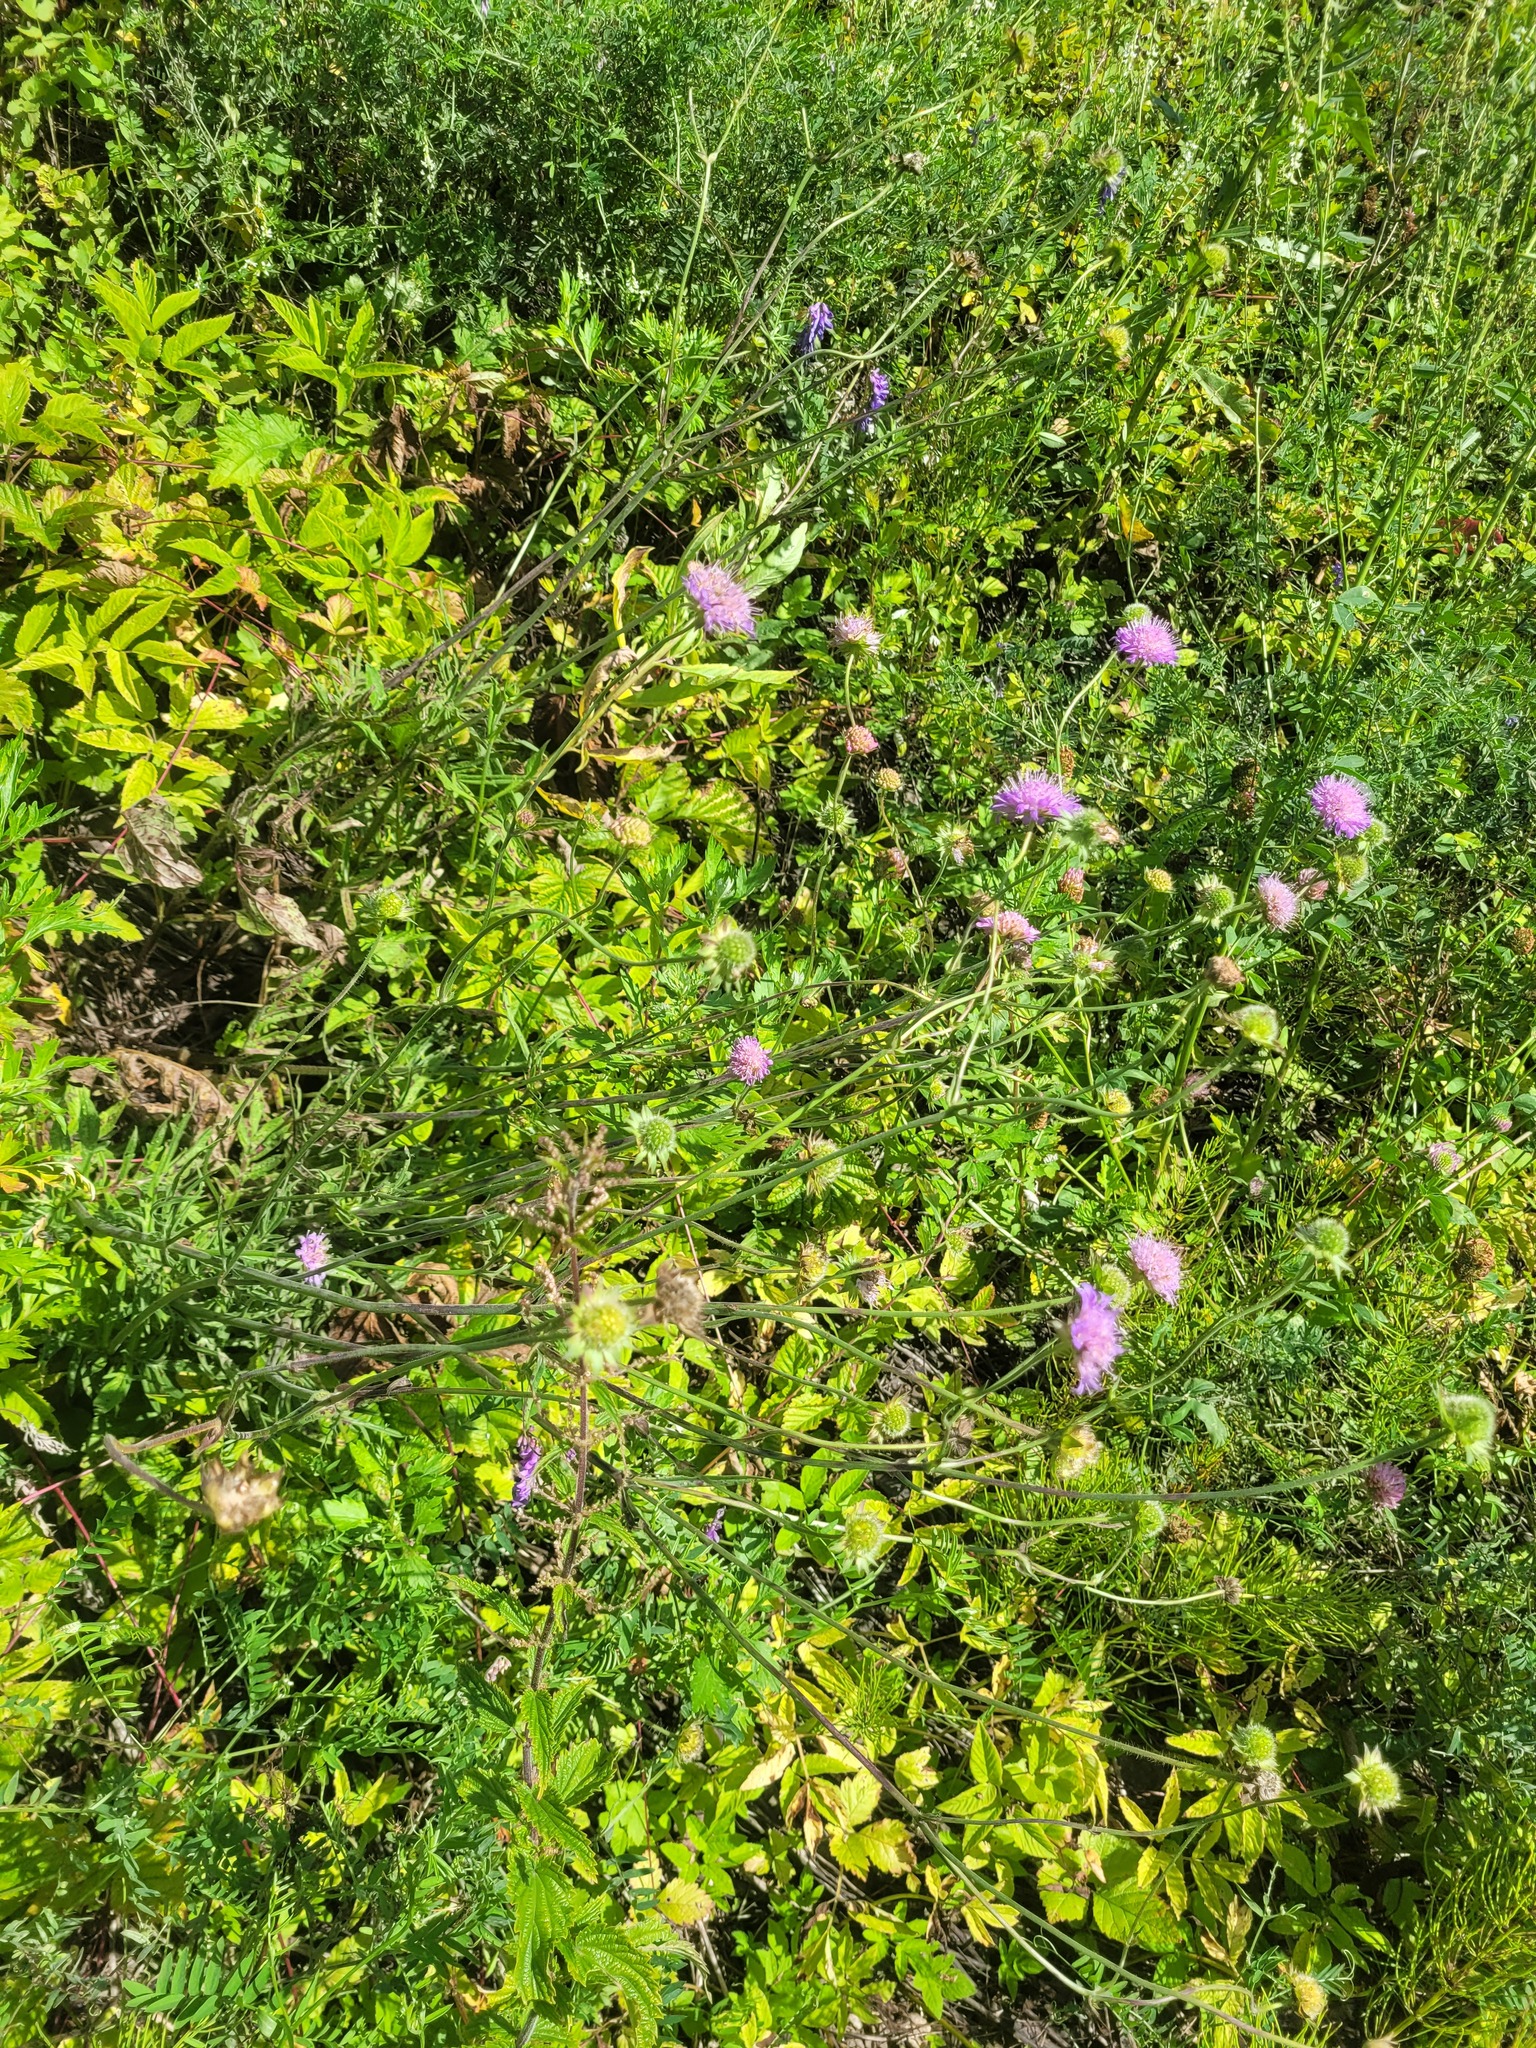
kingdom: Plantae
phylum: Tracheophyta
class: Magnoliopsida
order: Dipsacales
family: Caprifoliaceae
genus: Knautia
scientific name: Knautia arvensis
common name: Field scabiosa
